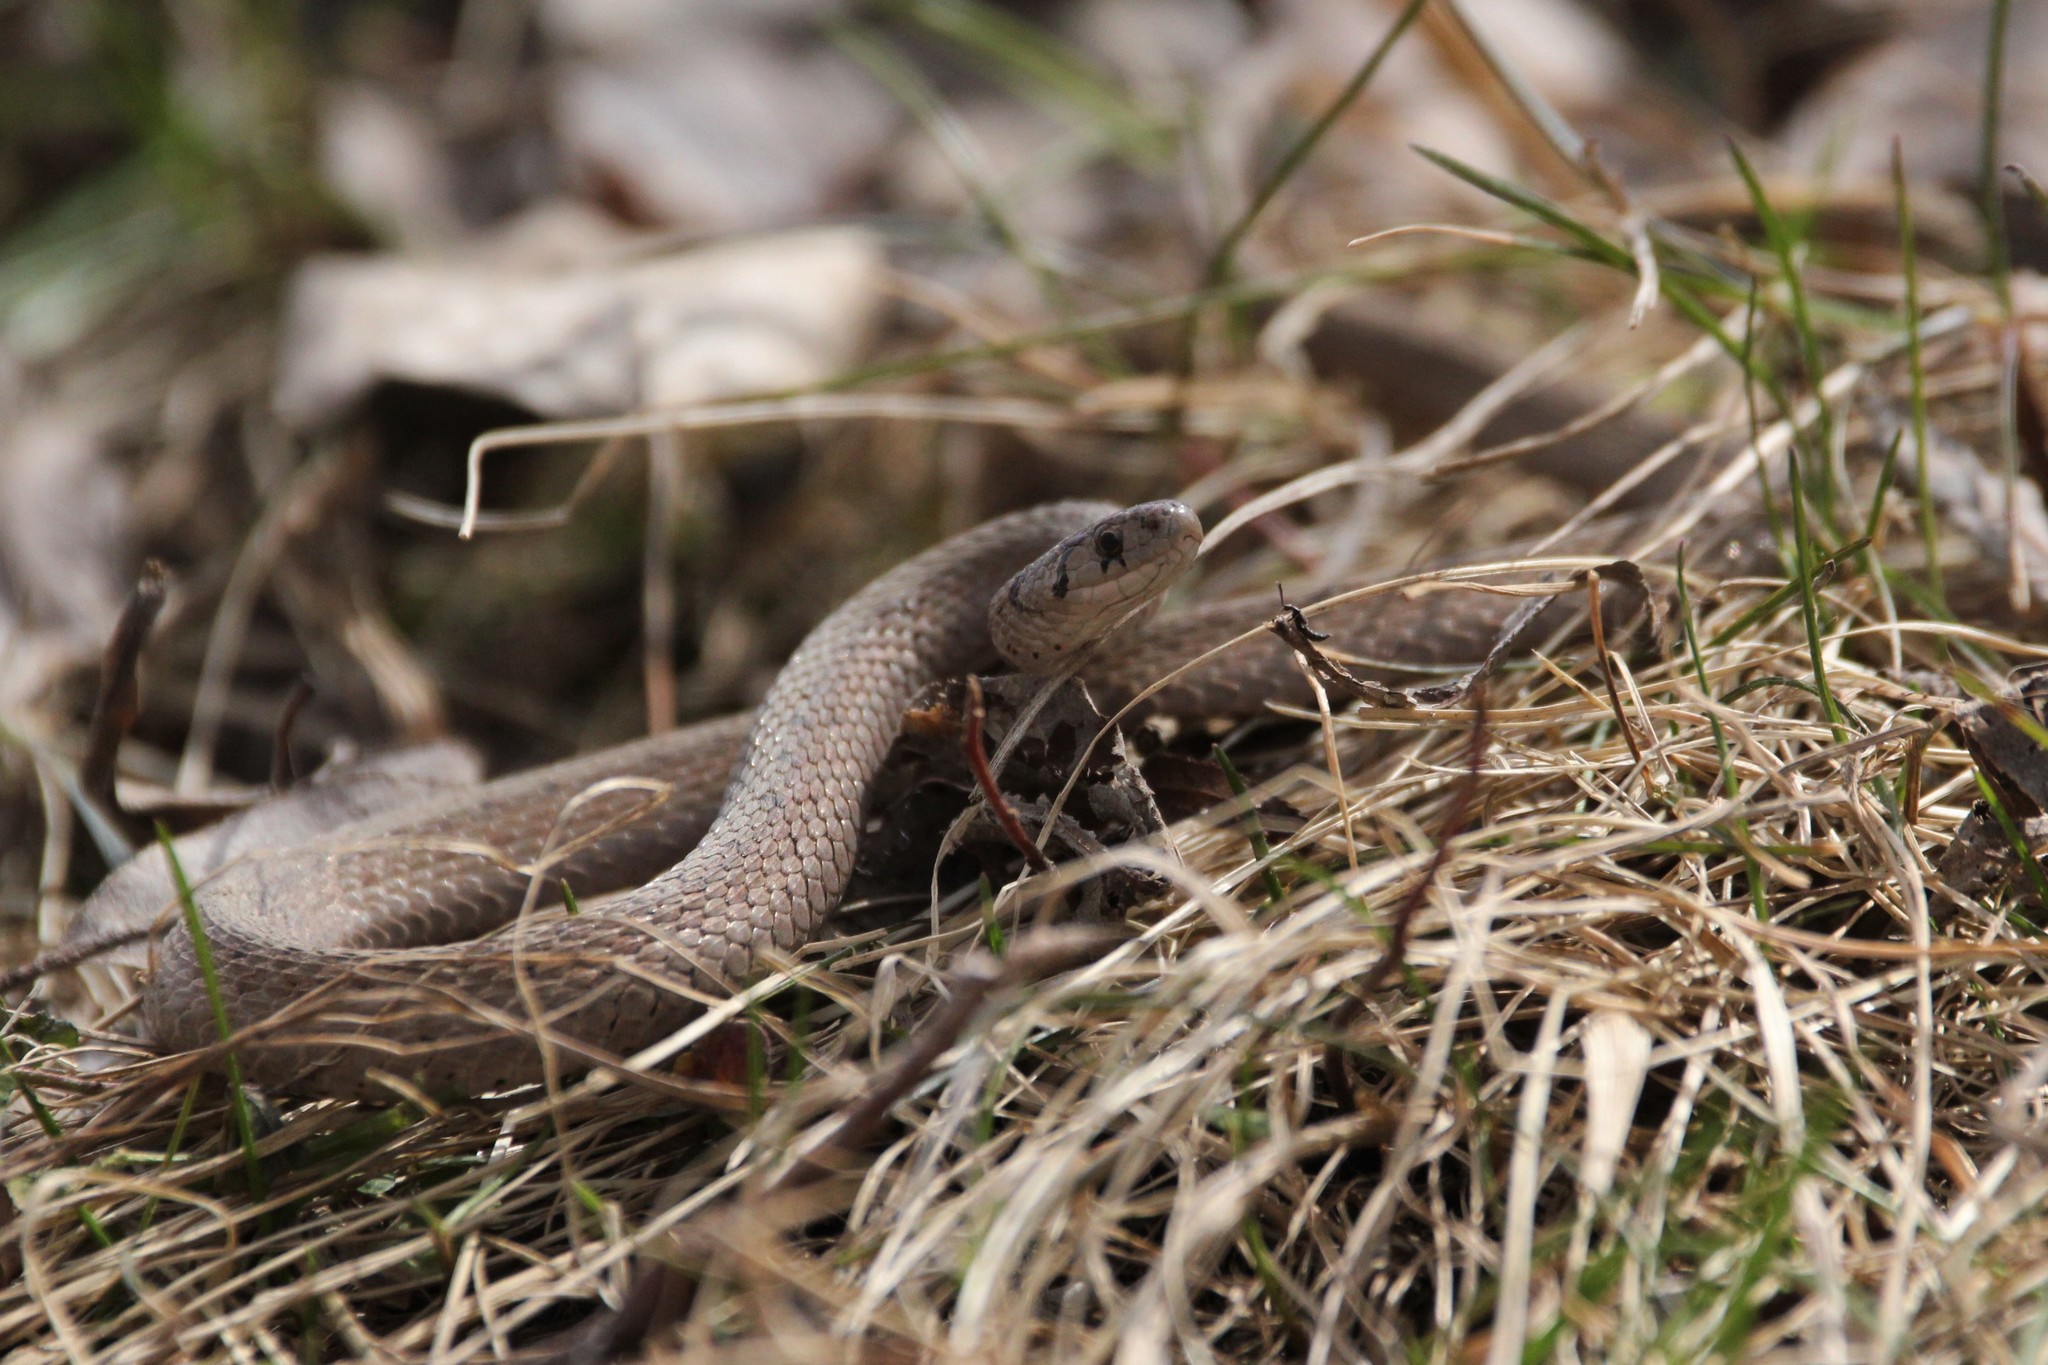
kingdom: Animalia
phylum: Chordata
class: Squamata
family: Colubridae
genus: Storeria
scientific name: Storeria dekayi
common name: (dekay’s) brown snake
